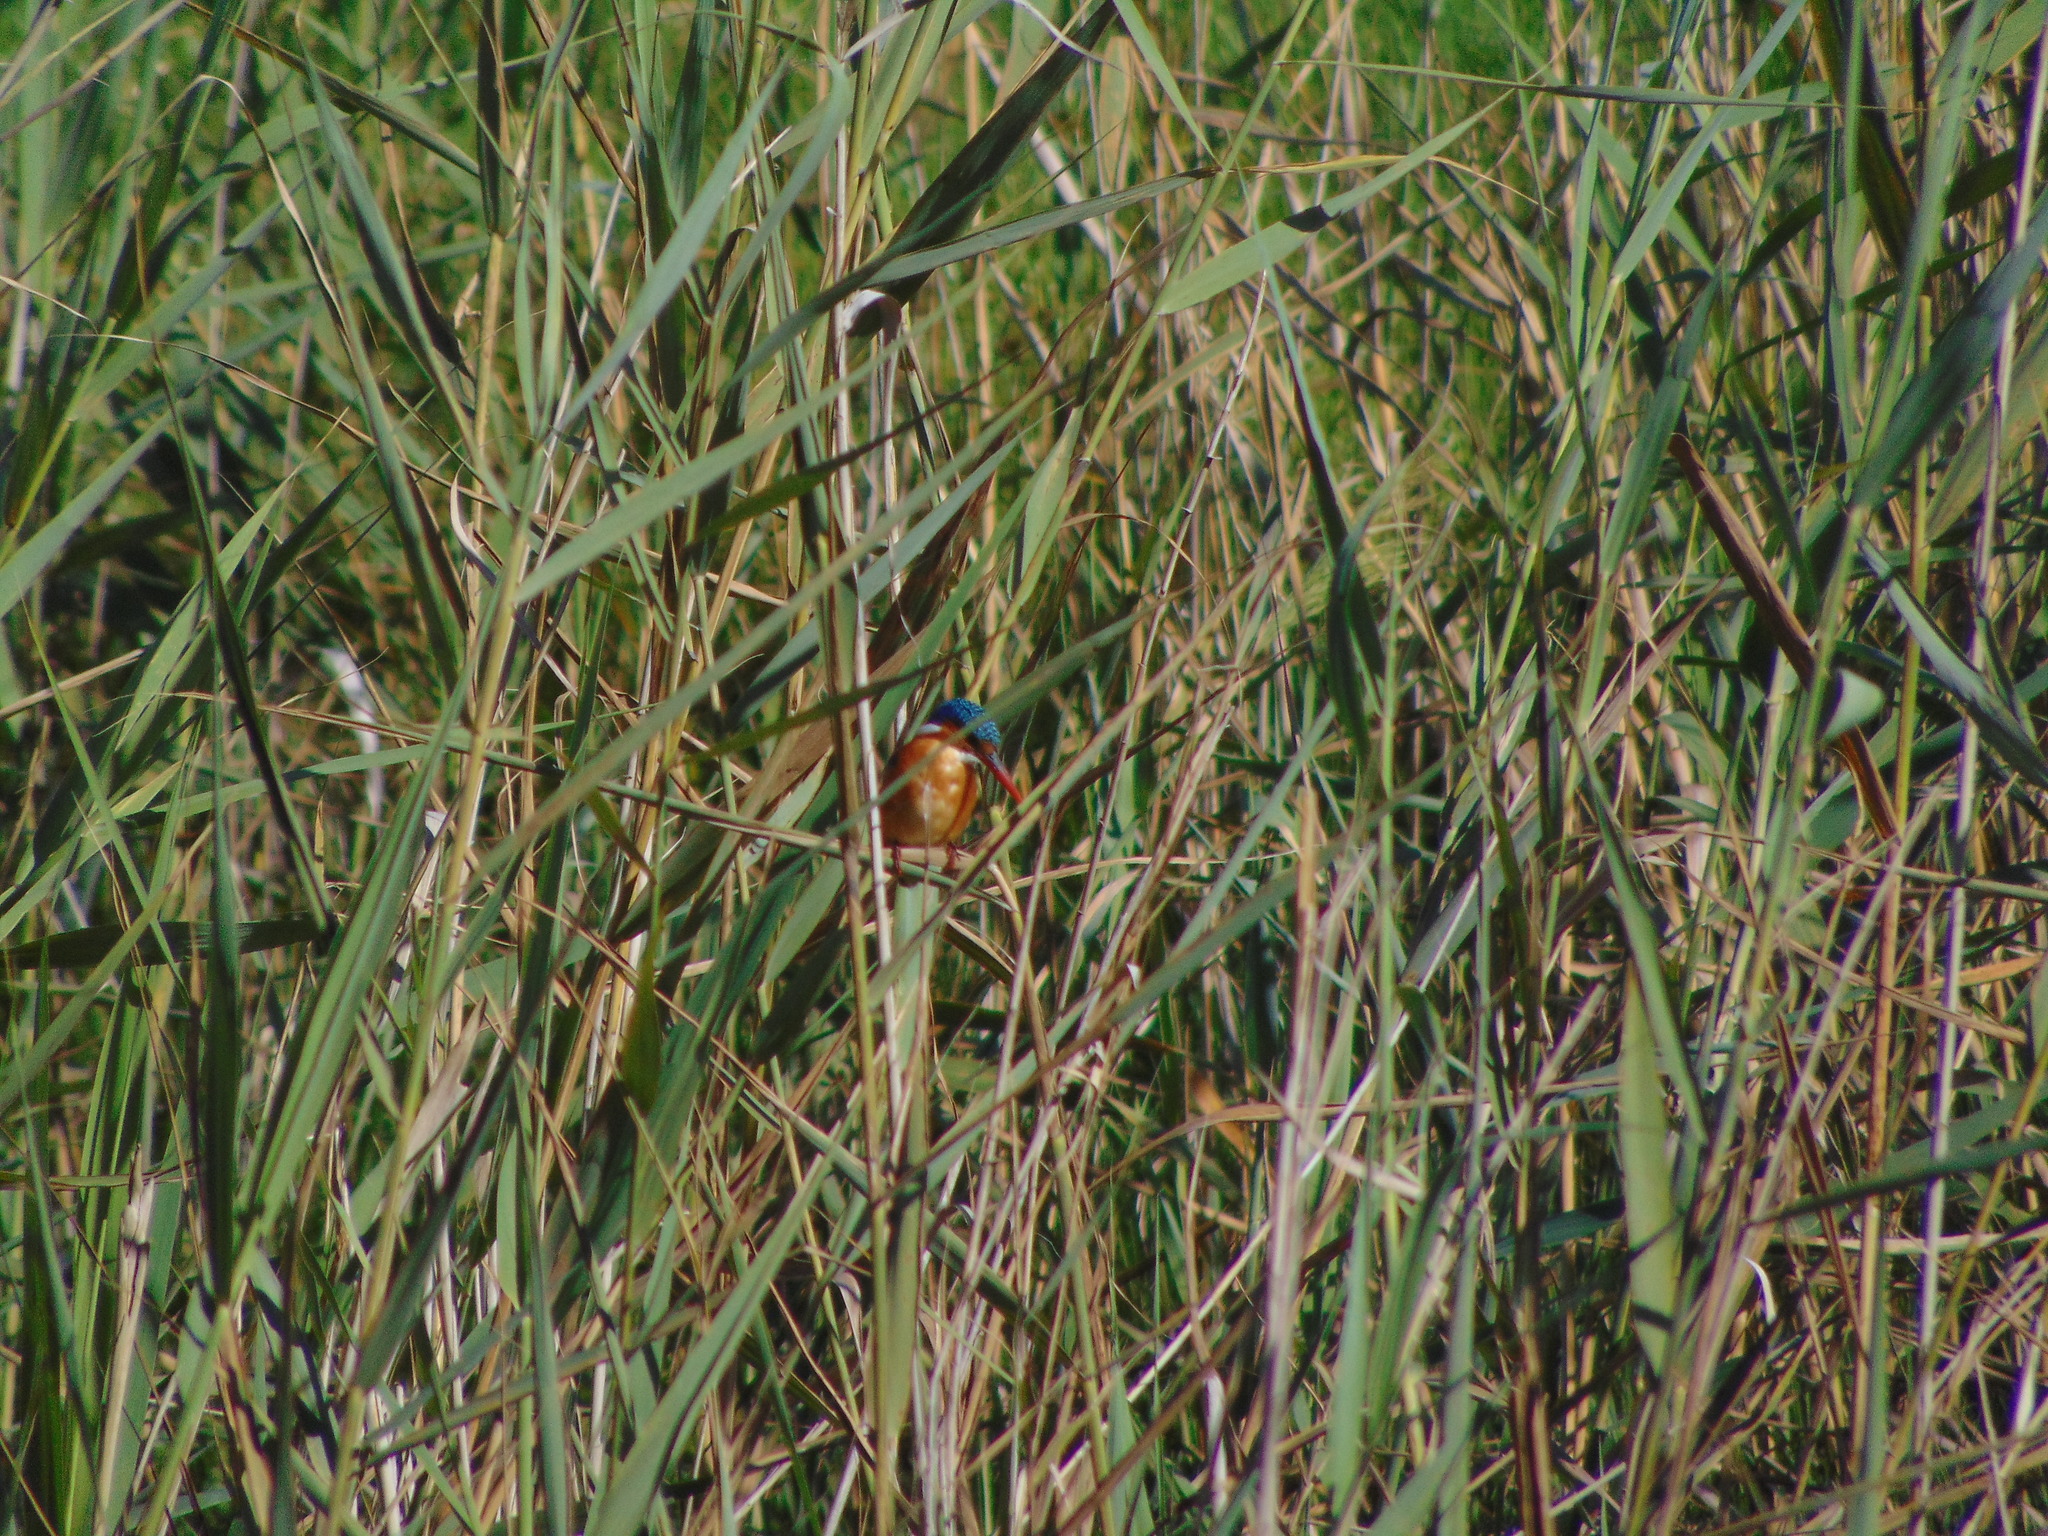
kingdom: Animalia
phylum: Chordata
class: Aves
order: Coraciiformes
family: Alcedinidae
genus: Corythornis
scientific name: Corythornis cristatus
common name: Malachite kingfisher
